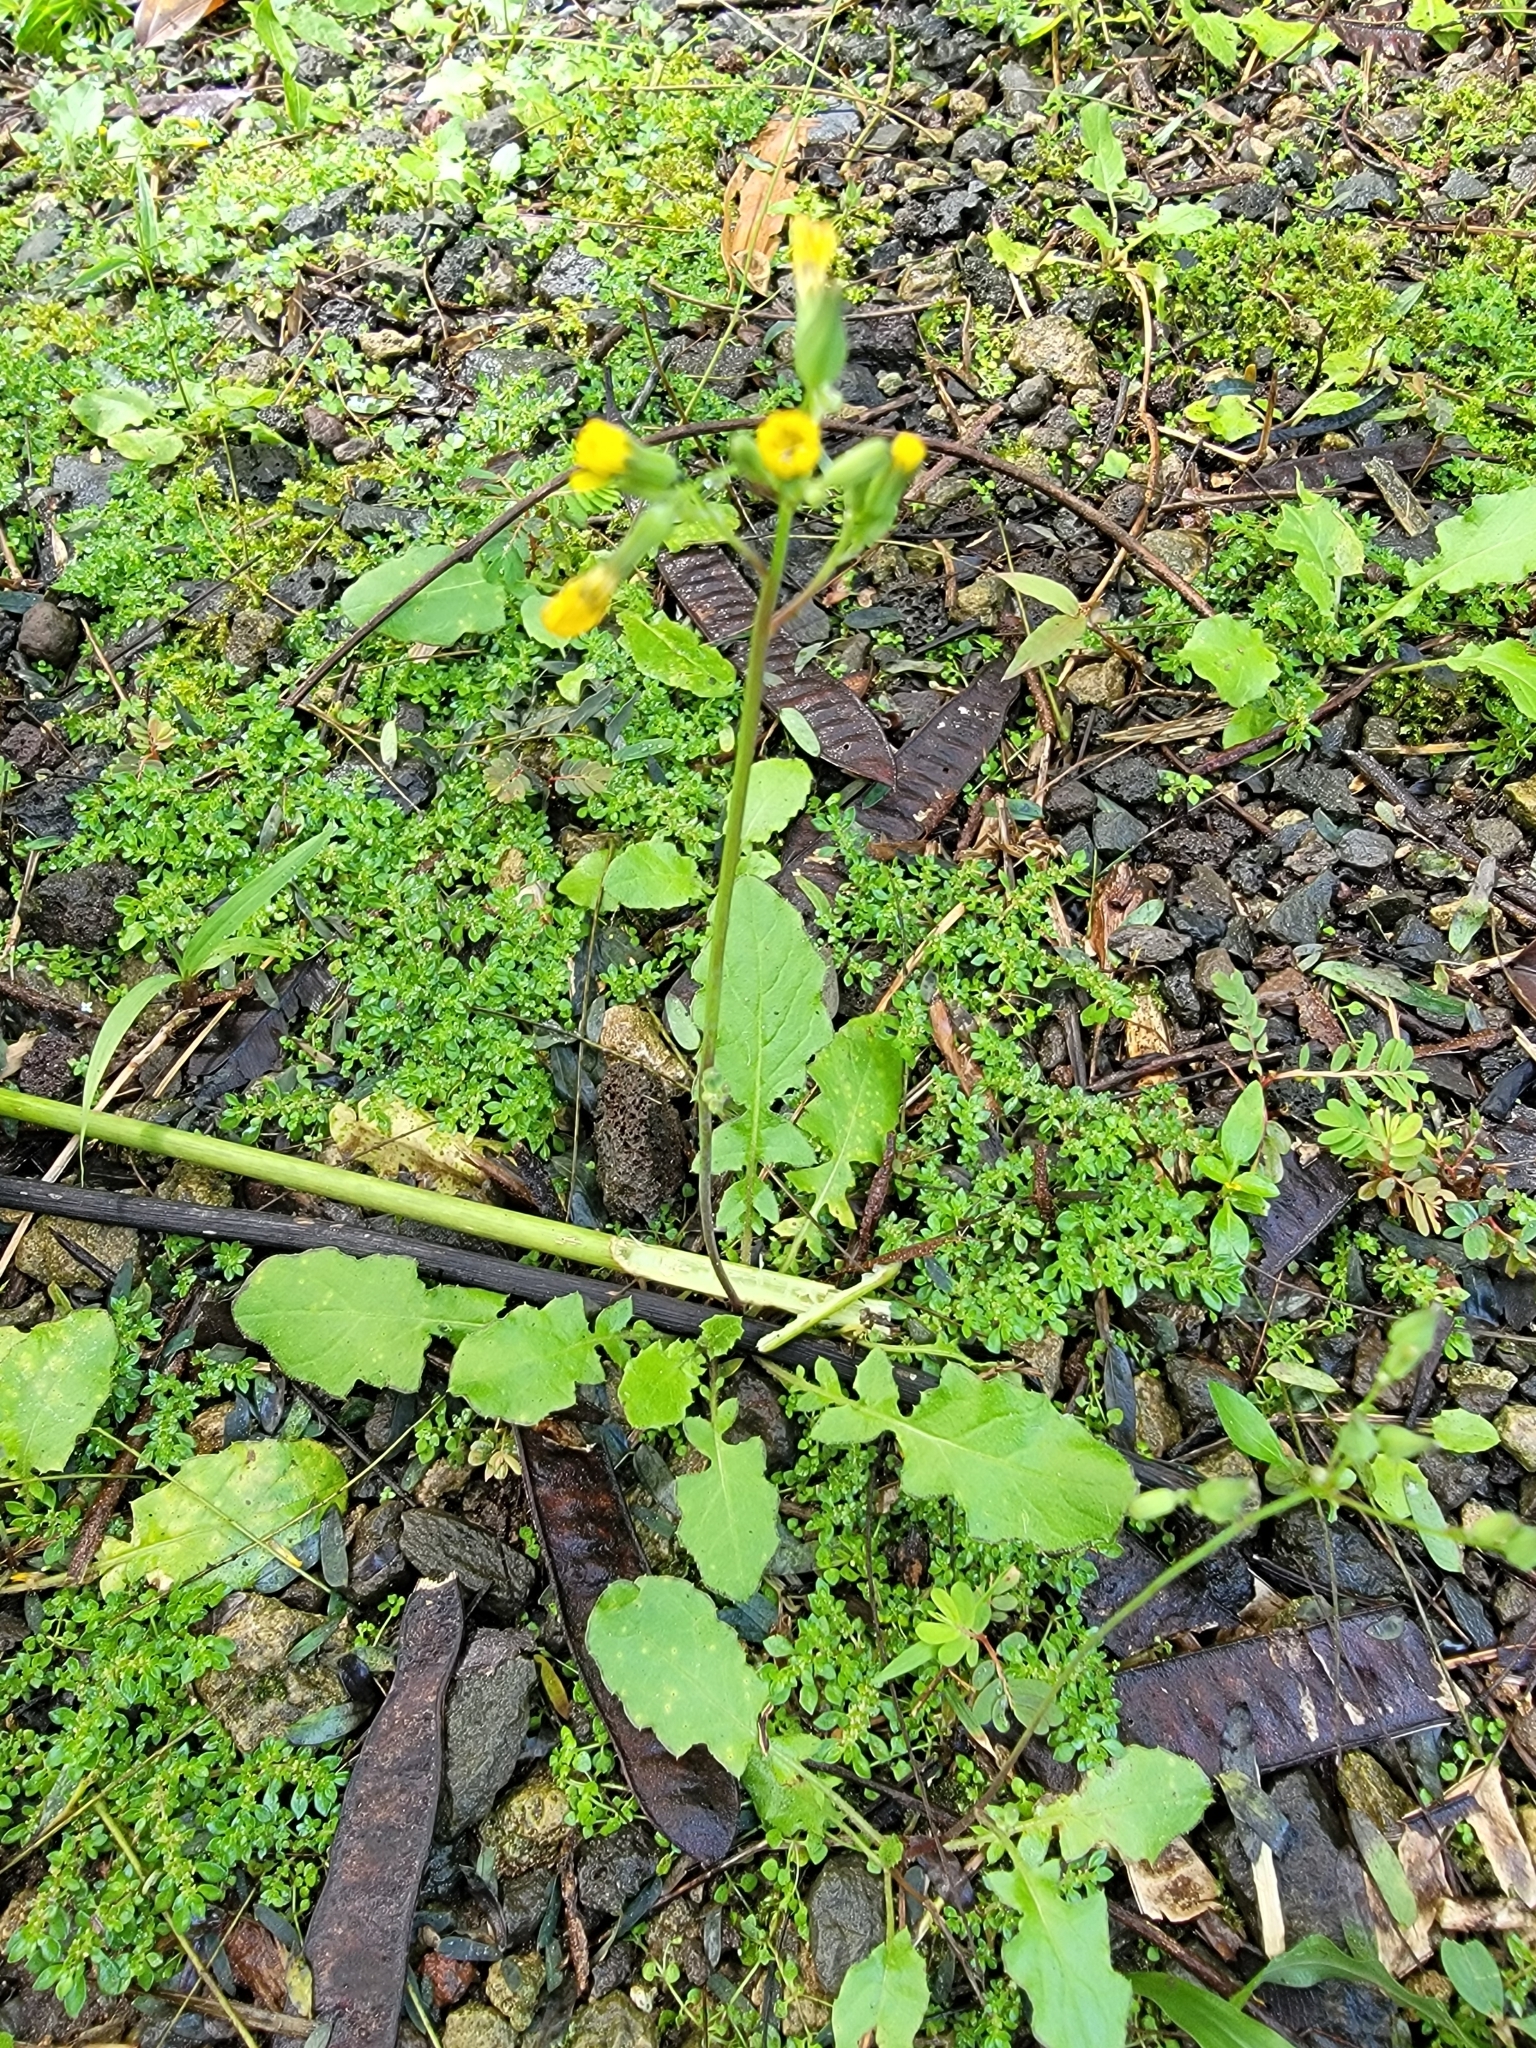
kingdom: Plantae
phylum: Tracheophyta
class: Magnoliopsida
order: Asterales
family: Asteraceae
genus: Youngia
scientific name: Youngia japonica
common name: Oriental false hawksbeard
